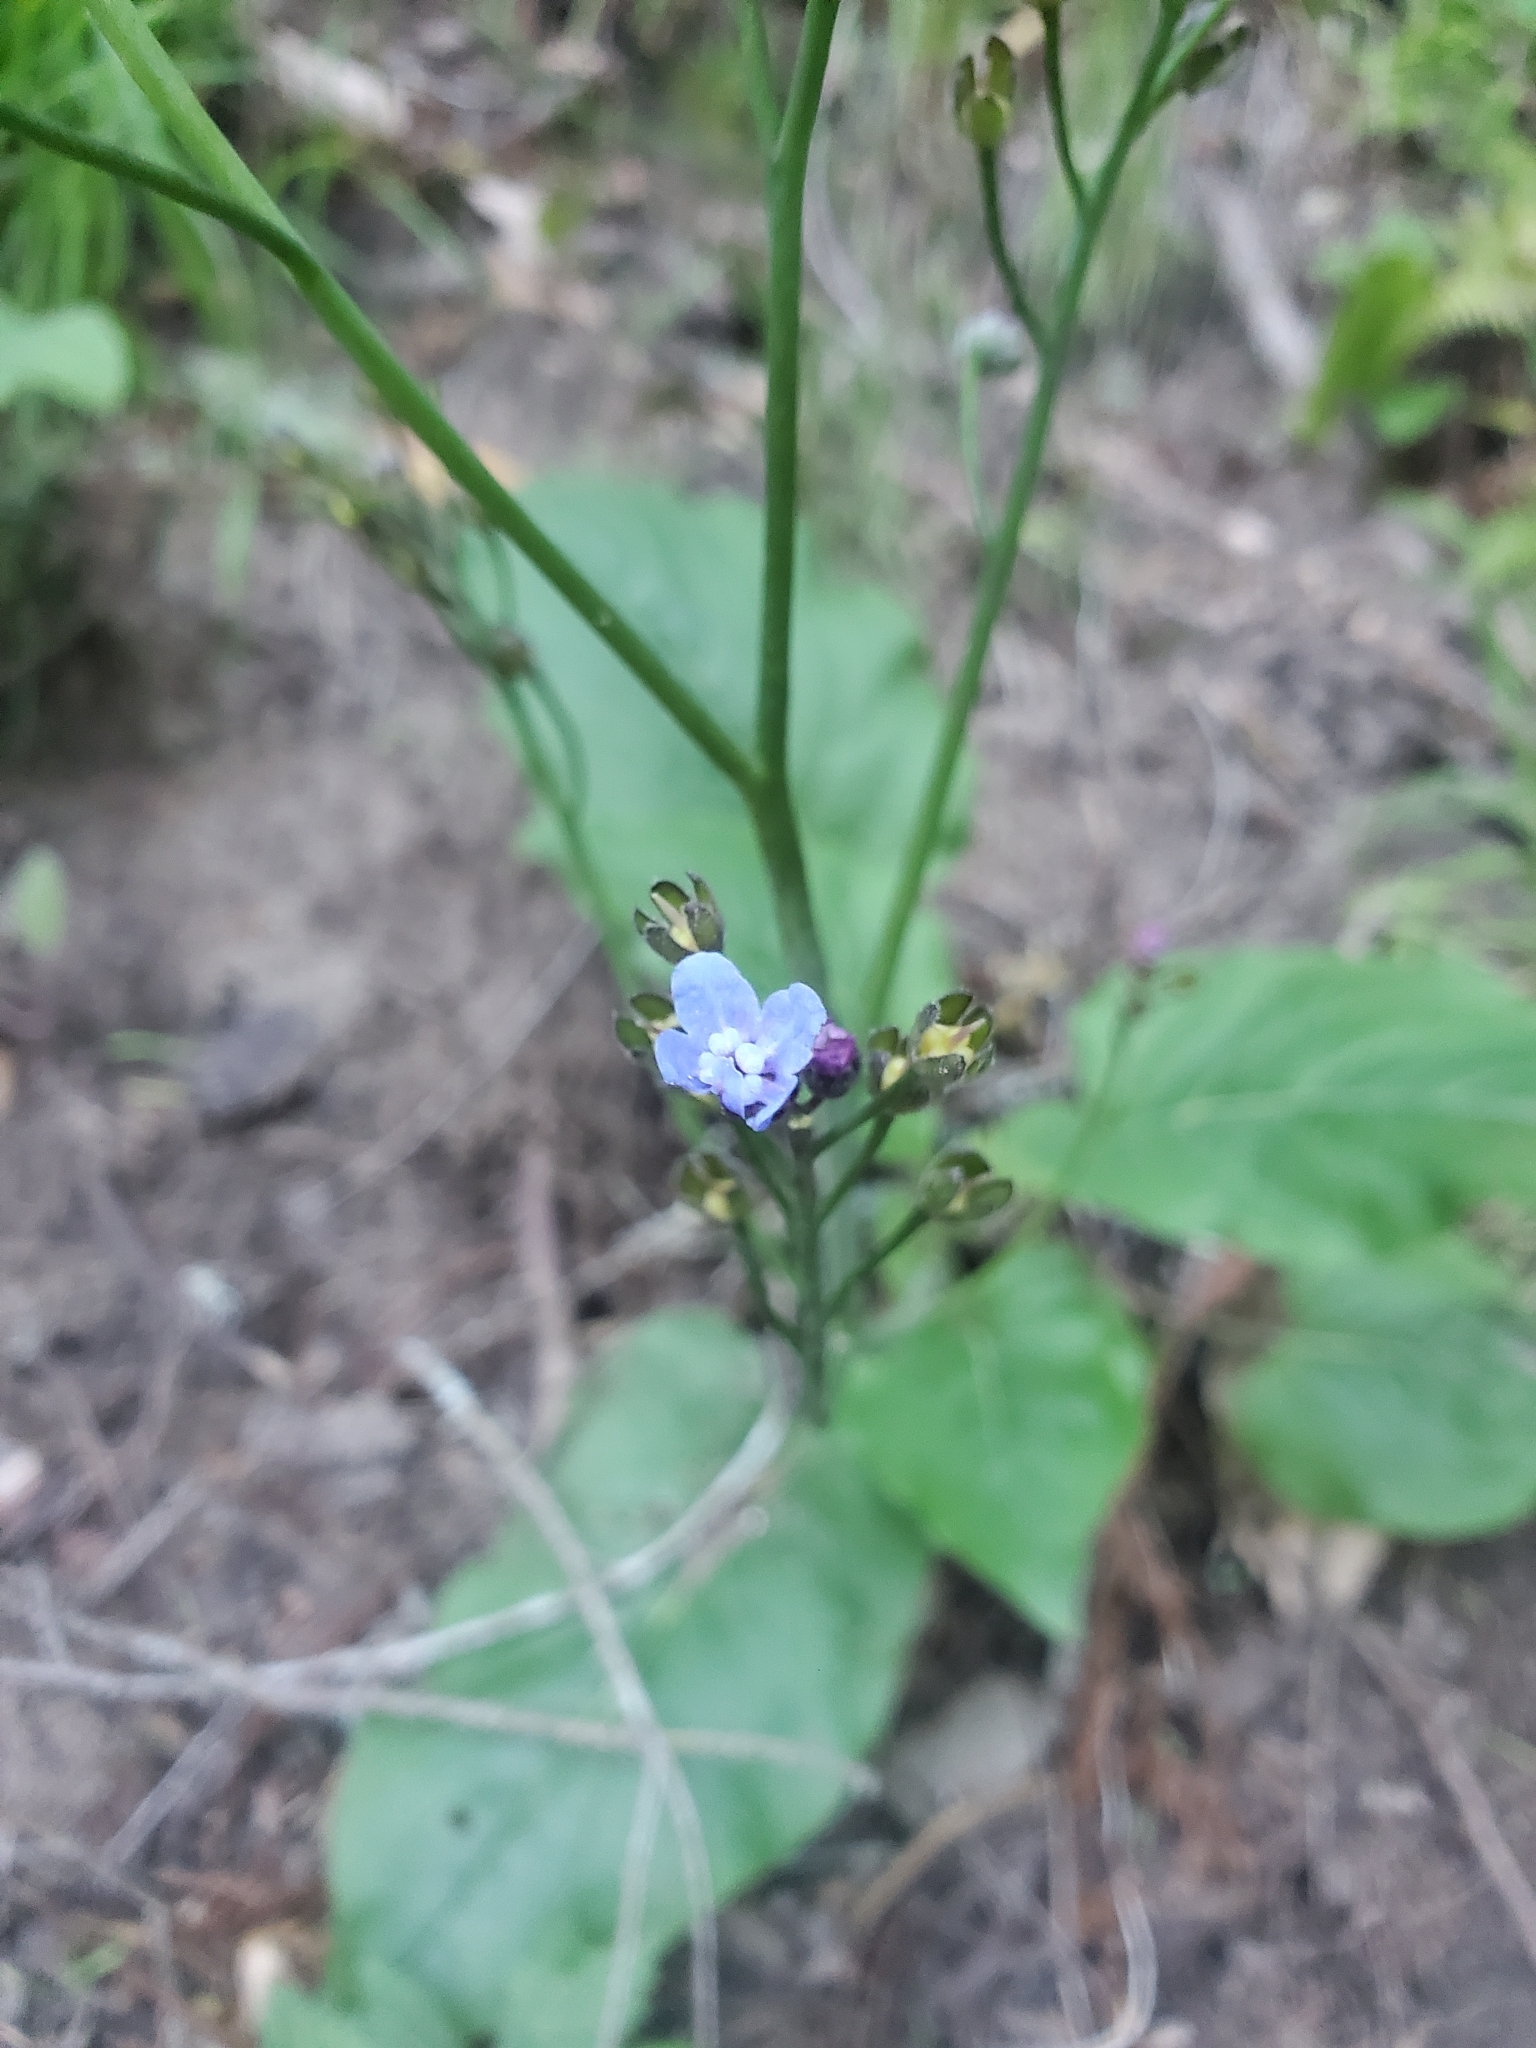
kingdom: Plantae
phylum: Tracheophyta
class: Magnoliopsida
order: Boraginales
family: Boraginaceae
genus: Adelinia
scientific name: Adelinia grande
